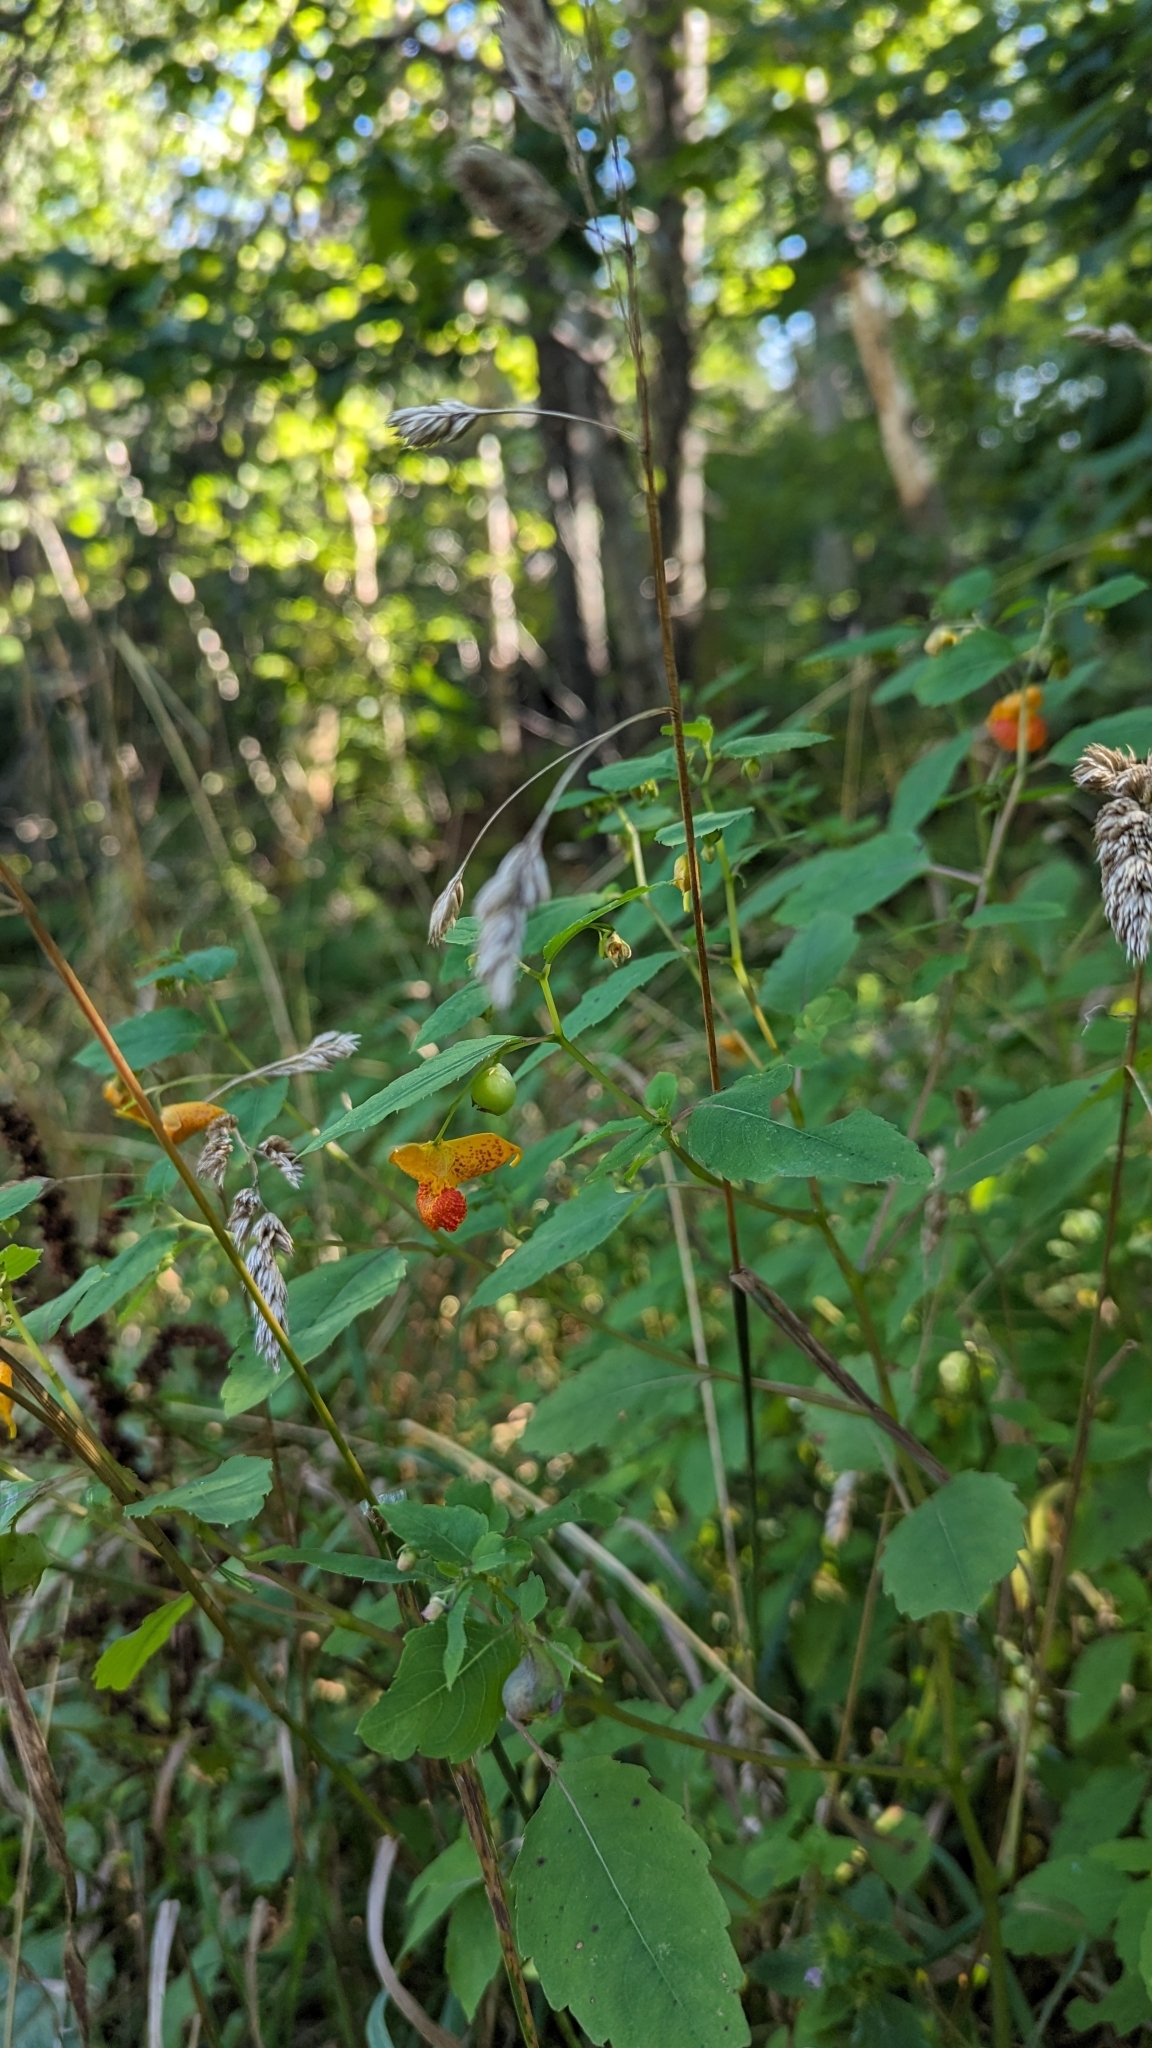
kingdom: Plantae
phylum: Tracheophyta
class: Magnoliopsida
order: Ericales
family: Balsaminaceae
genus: Impatiens
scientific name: Impatiens capensis
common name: Orange balsam
